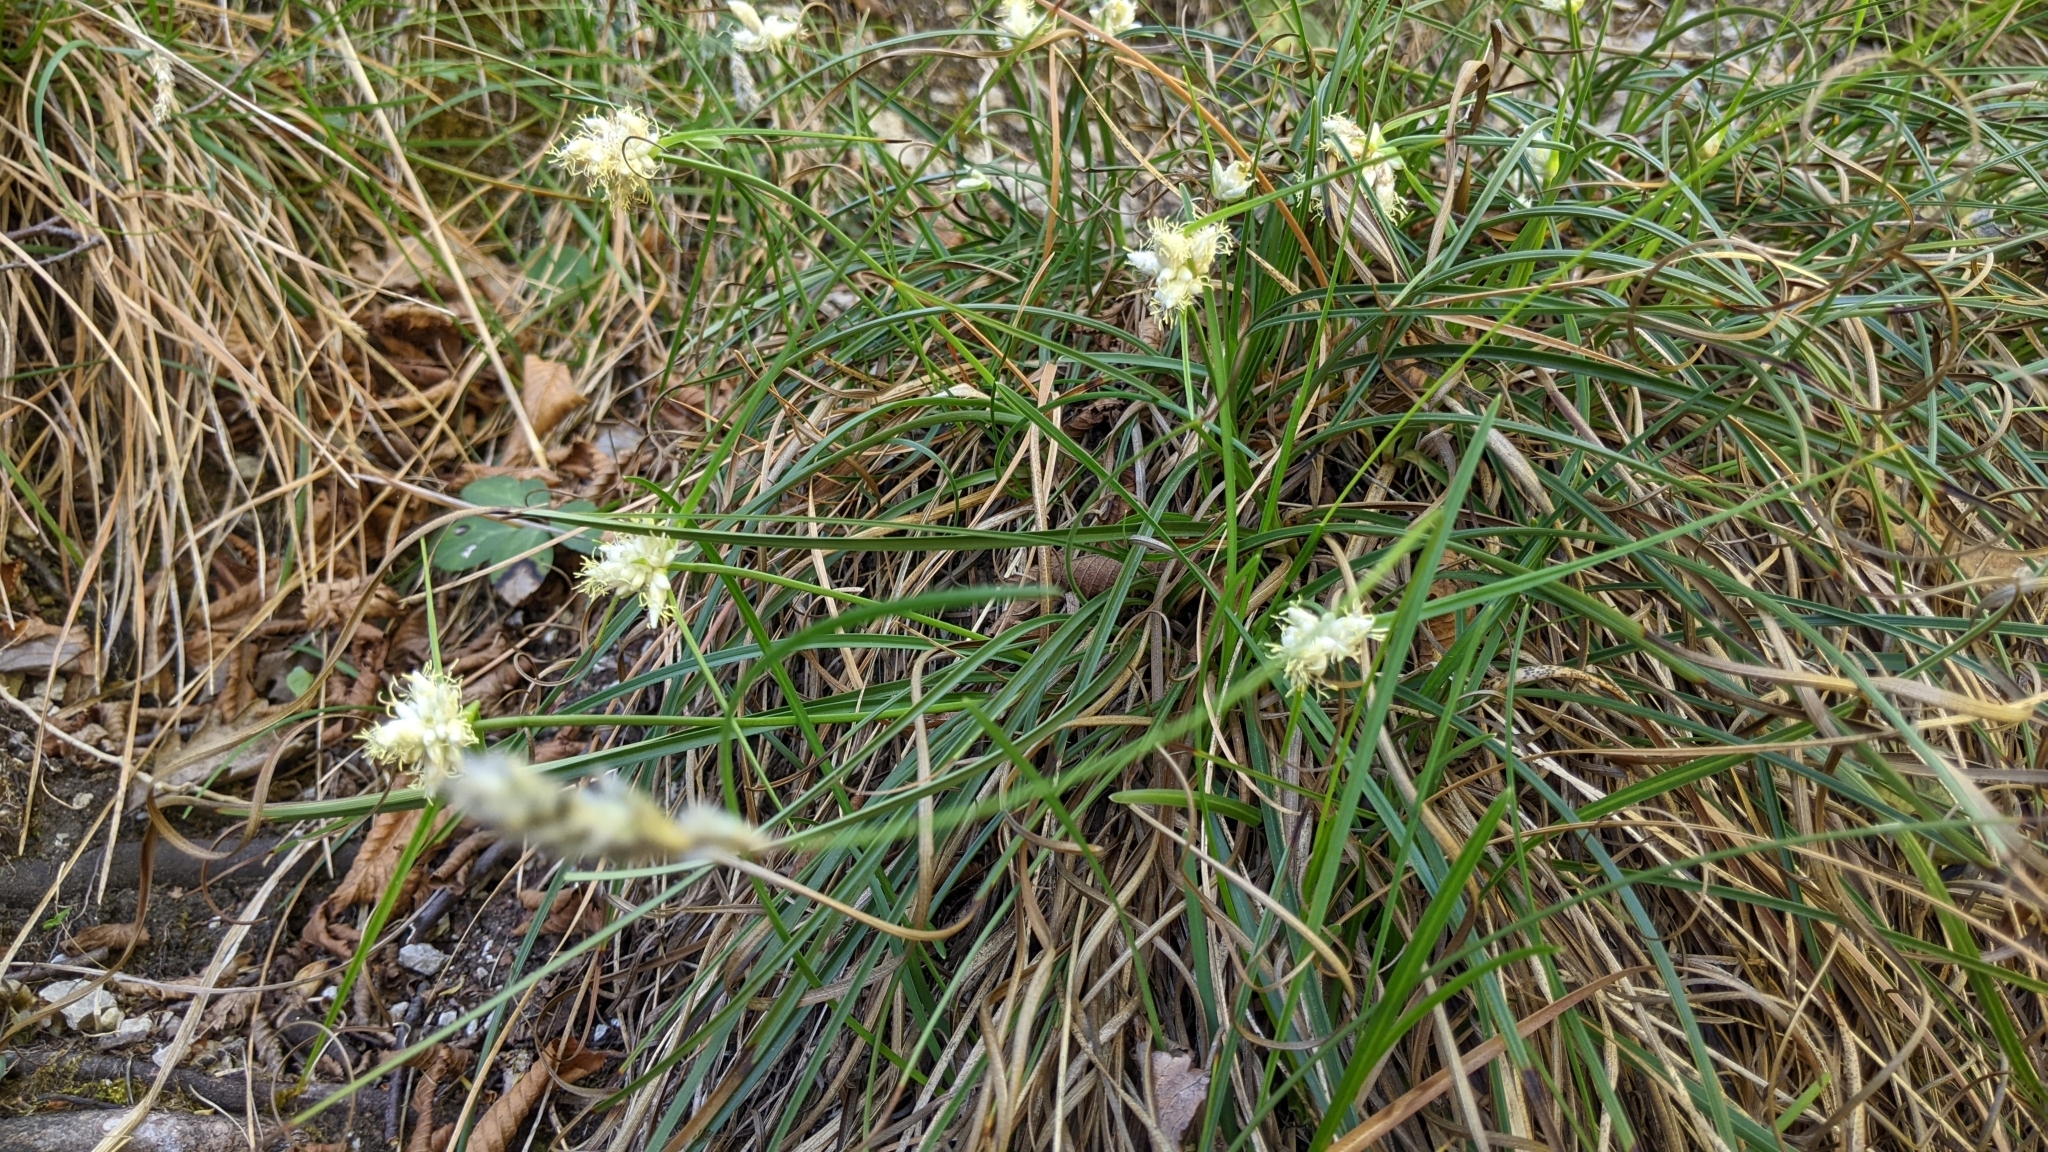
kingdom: Plantae
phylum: Tracheophyta
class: Liliopsida
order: Poales
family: Cyperaceae
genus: Carex
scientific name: Carex baldensis
